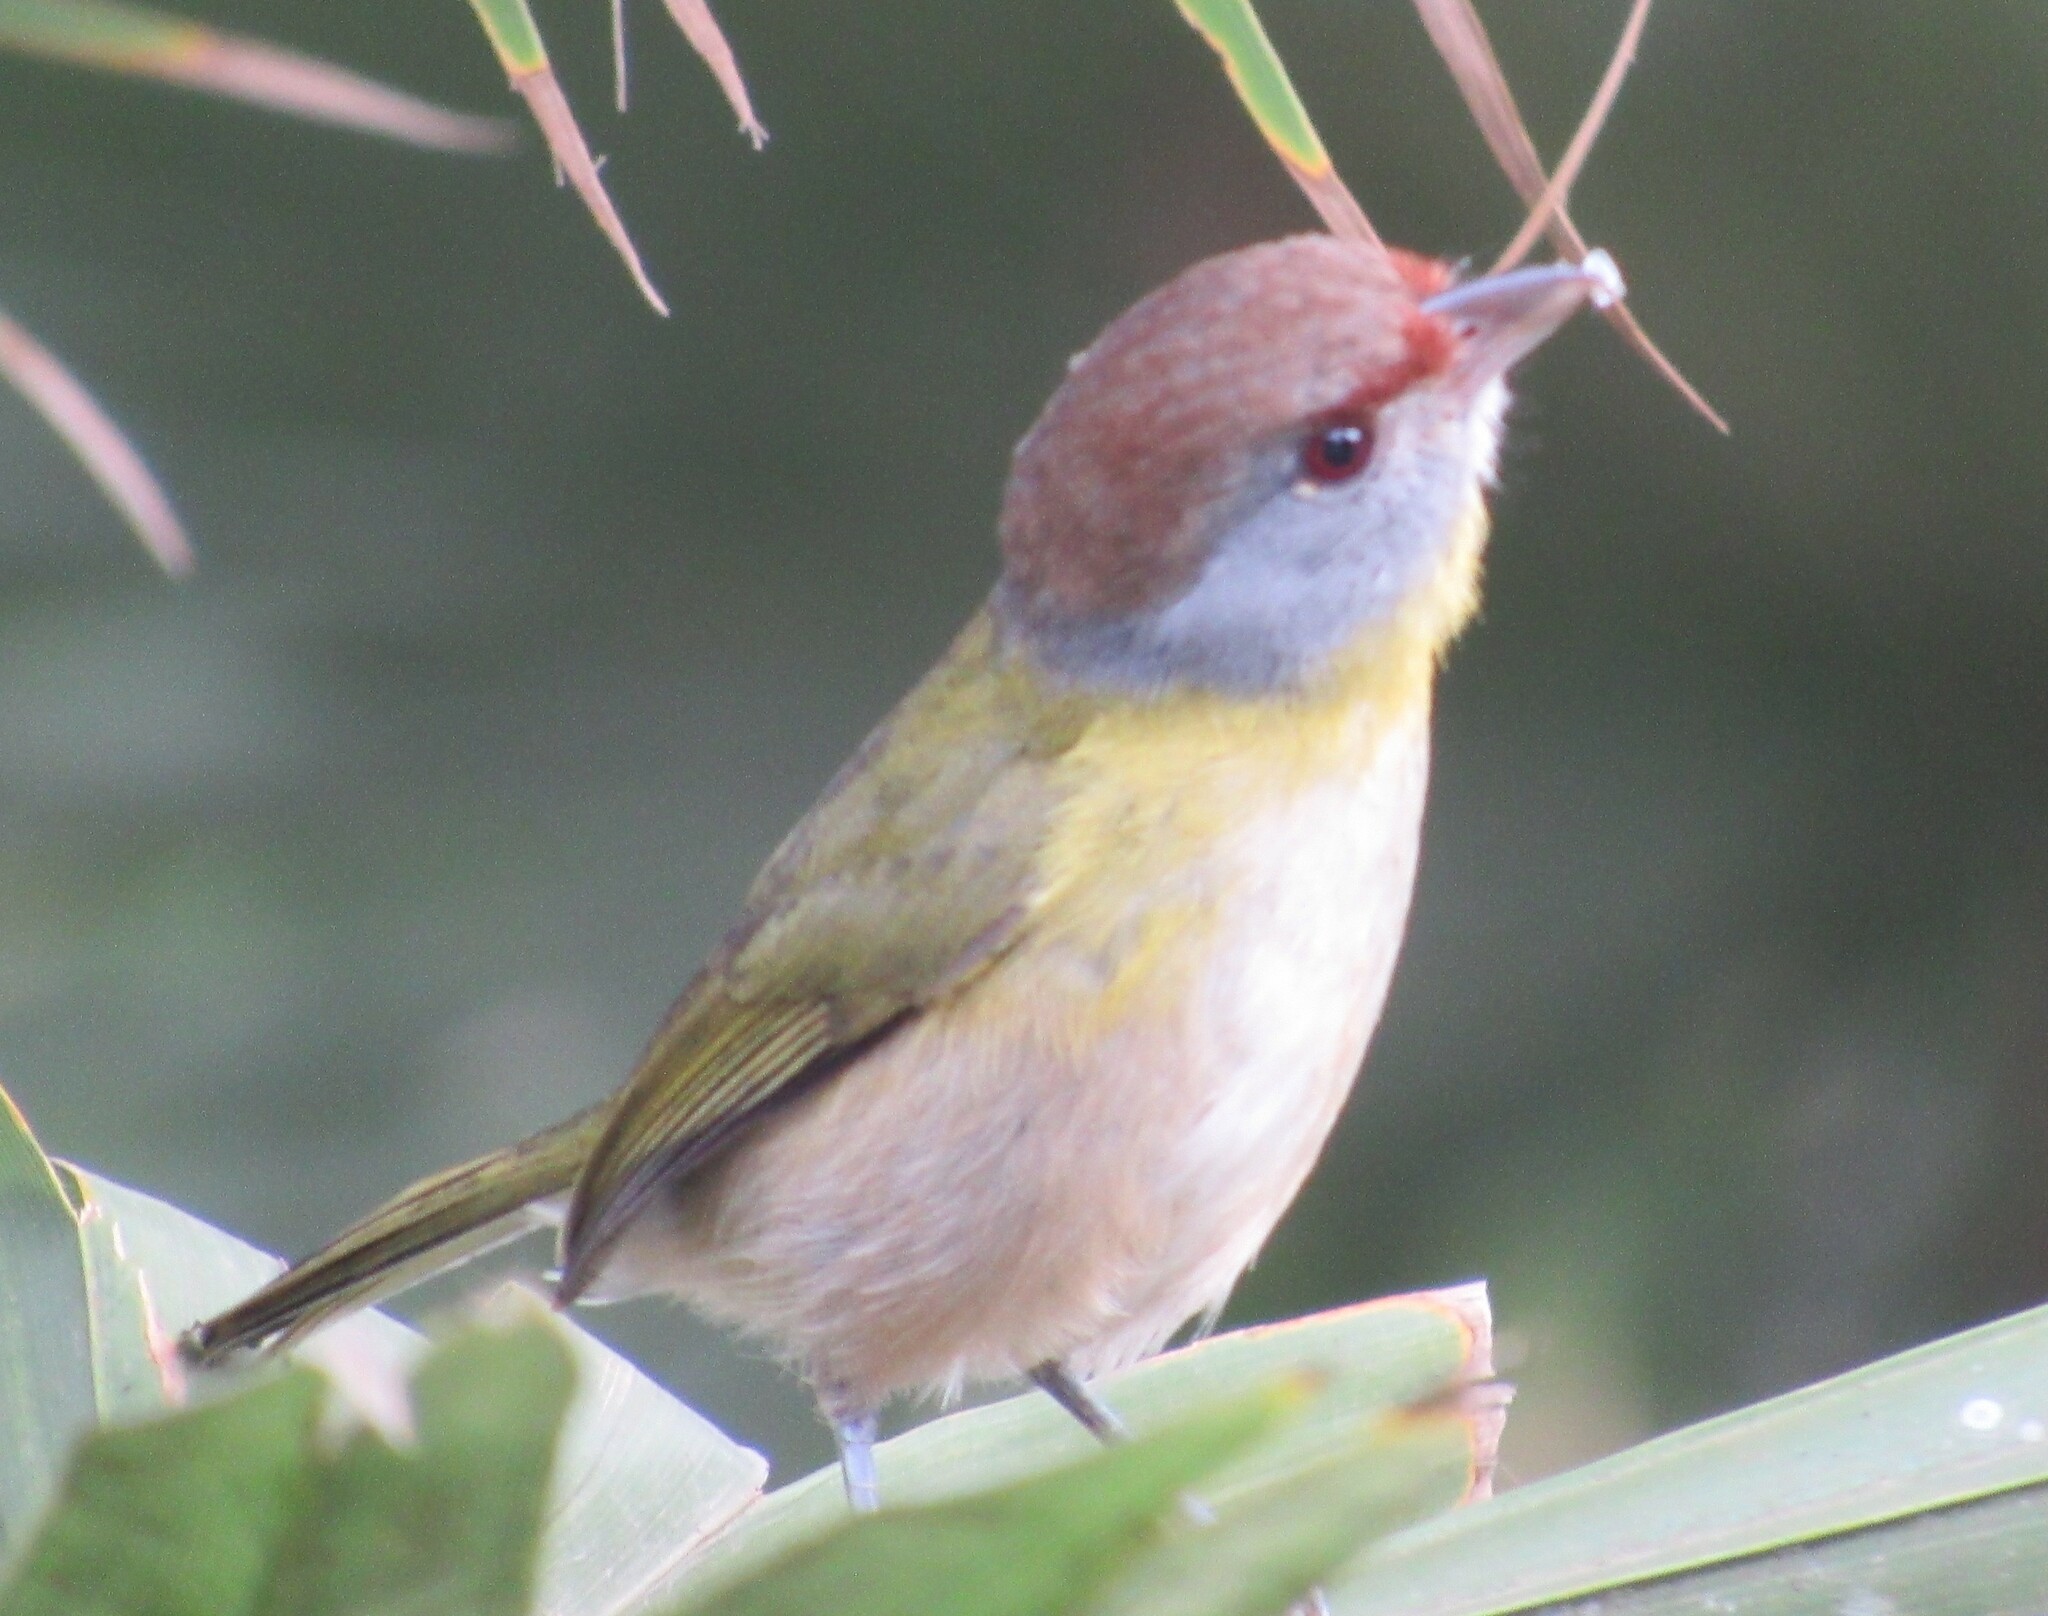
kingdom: Animalia
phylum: Chordata
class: Aves
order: Passeriformes
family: Vireonidae
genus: Cyclarhis
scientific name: Cyclarhis gujanensis
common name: Rufous-browed peppershrike
